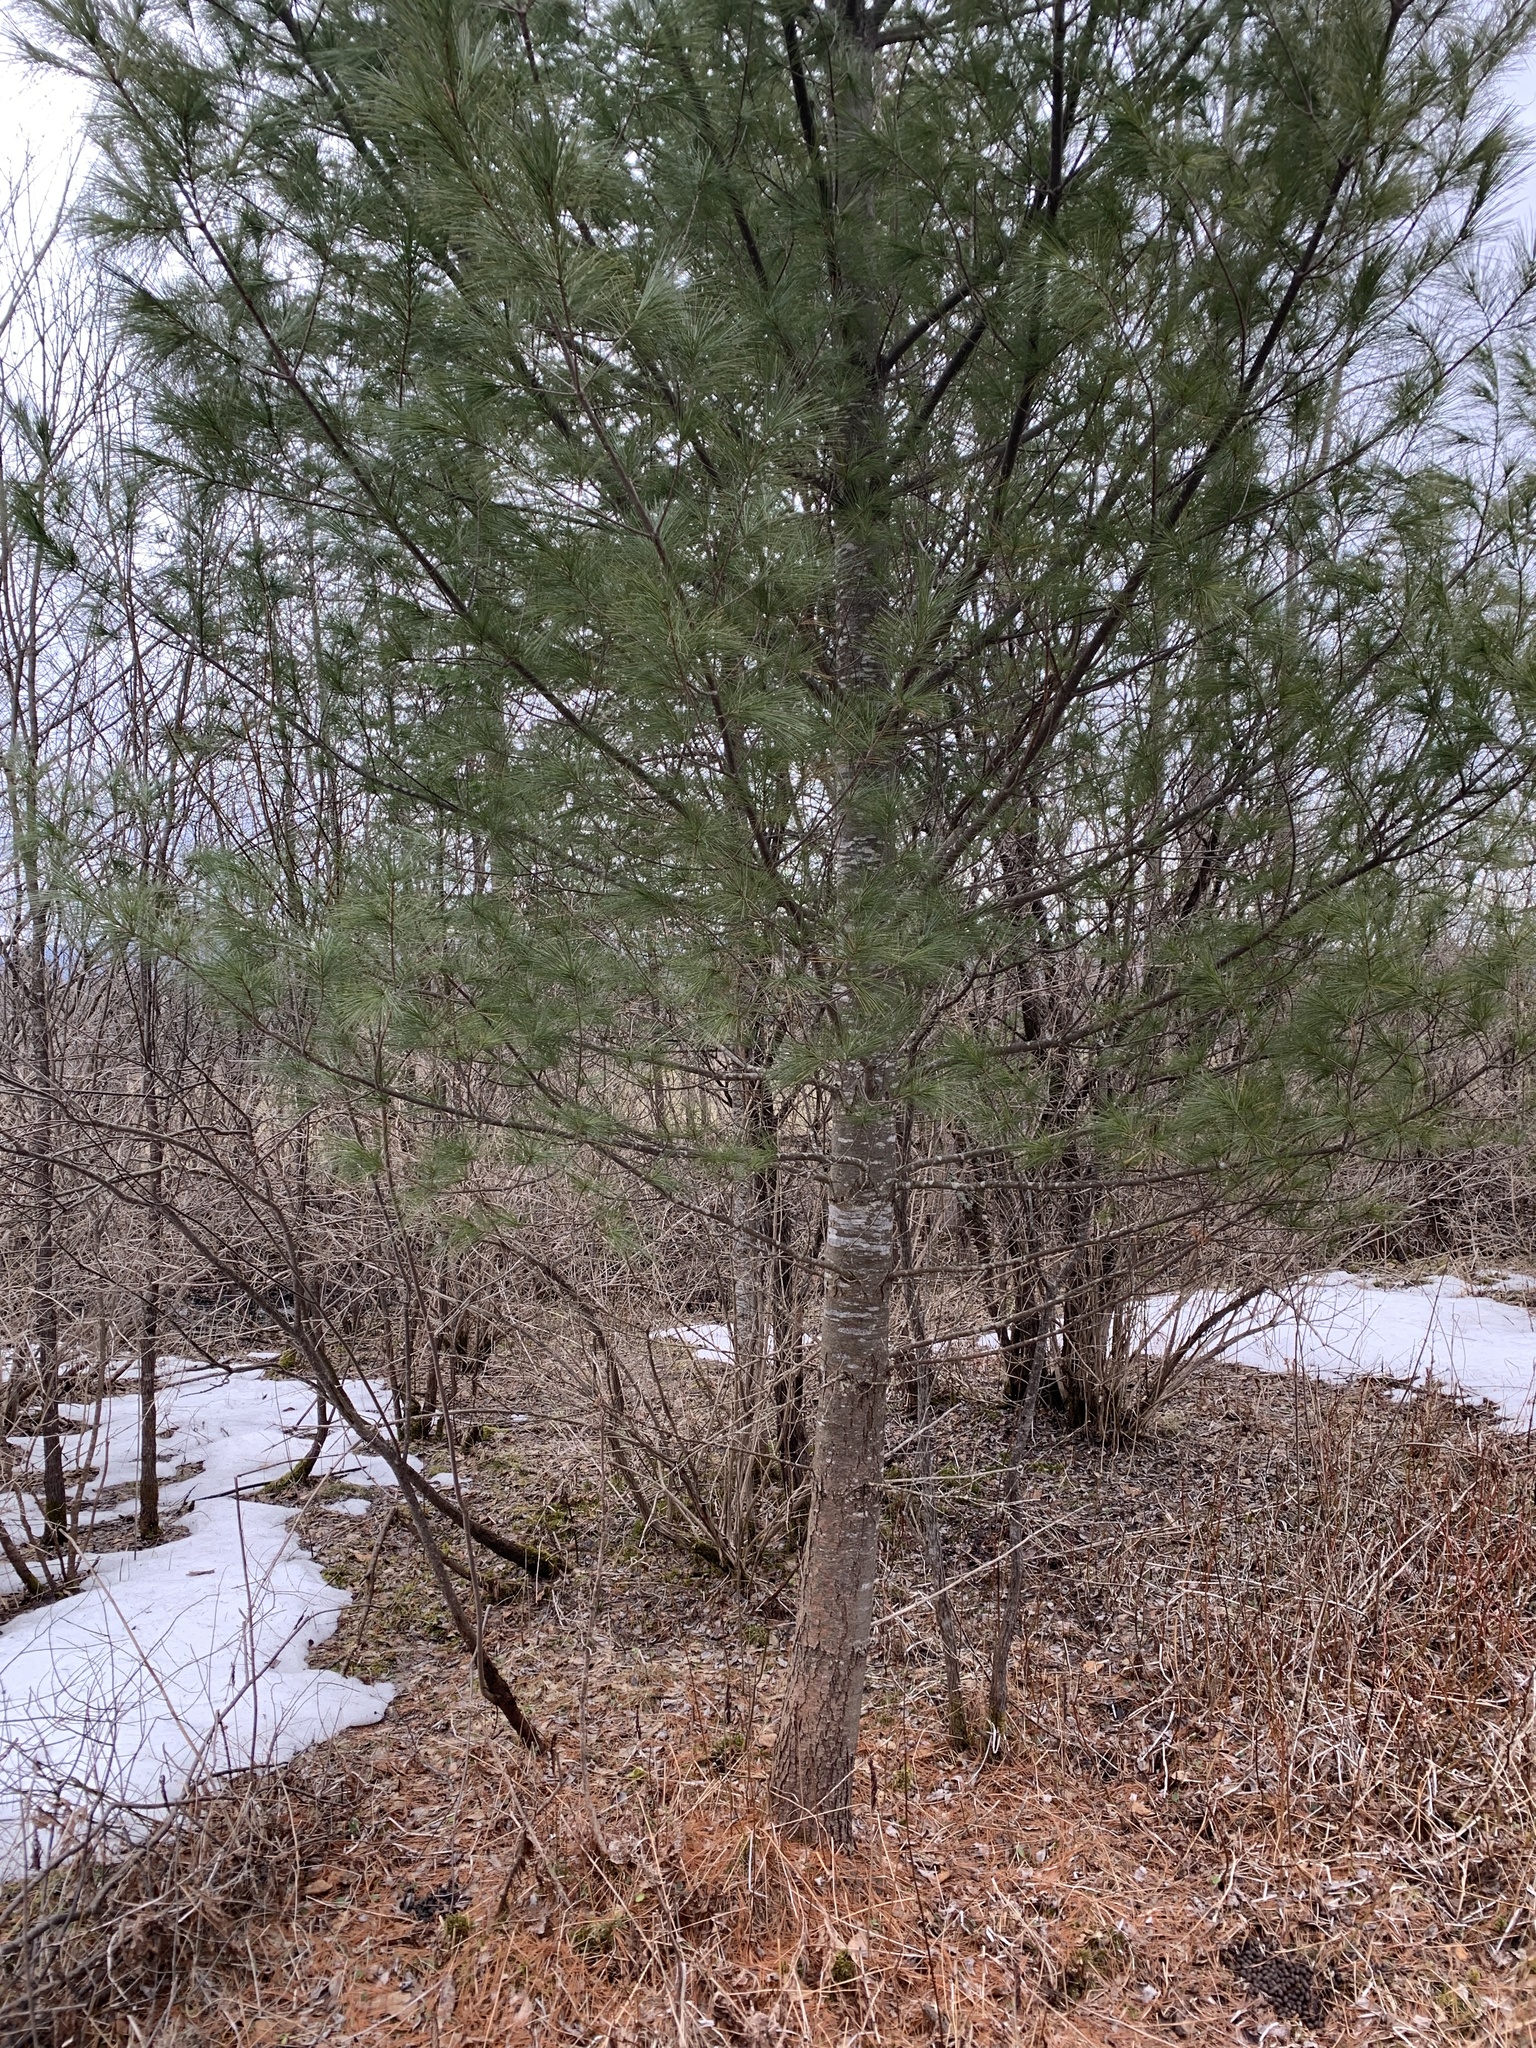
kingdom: Plantae
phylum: Tracheophyta
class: Pinopsida
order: Pinales
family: Pinaceae
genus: Pinus
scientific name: Pinus strobus
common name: Weymouth pine
